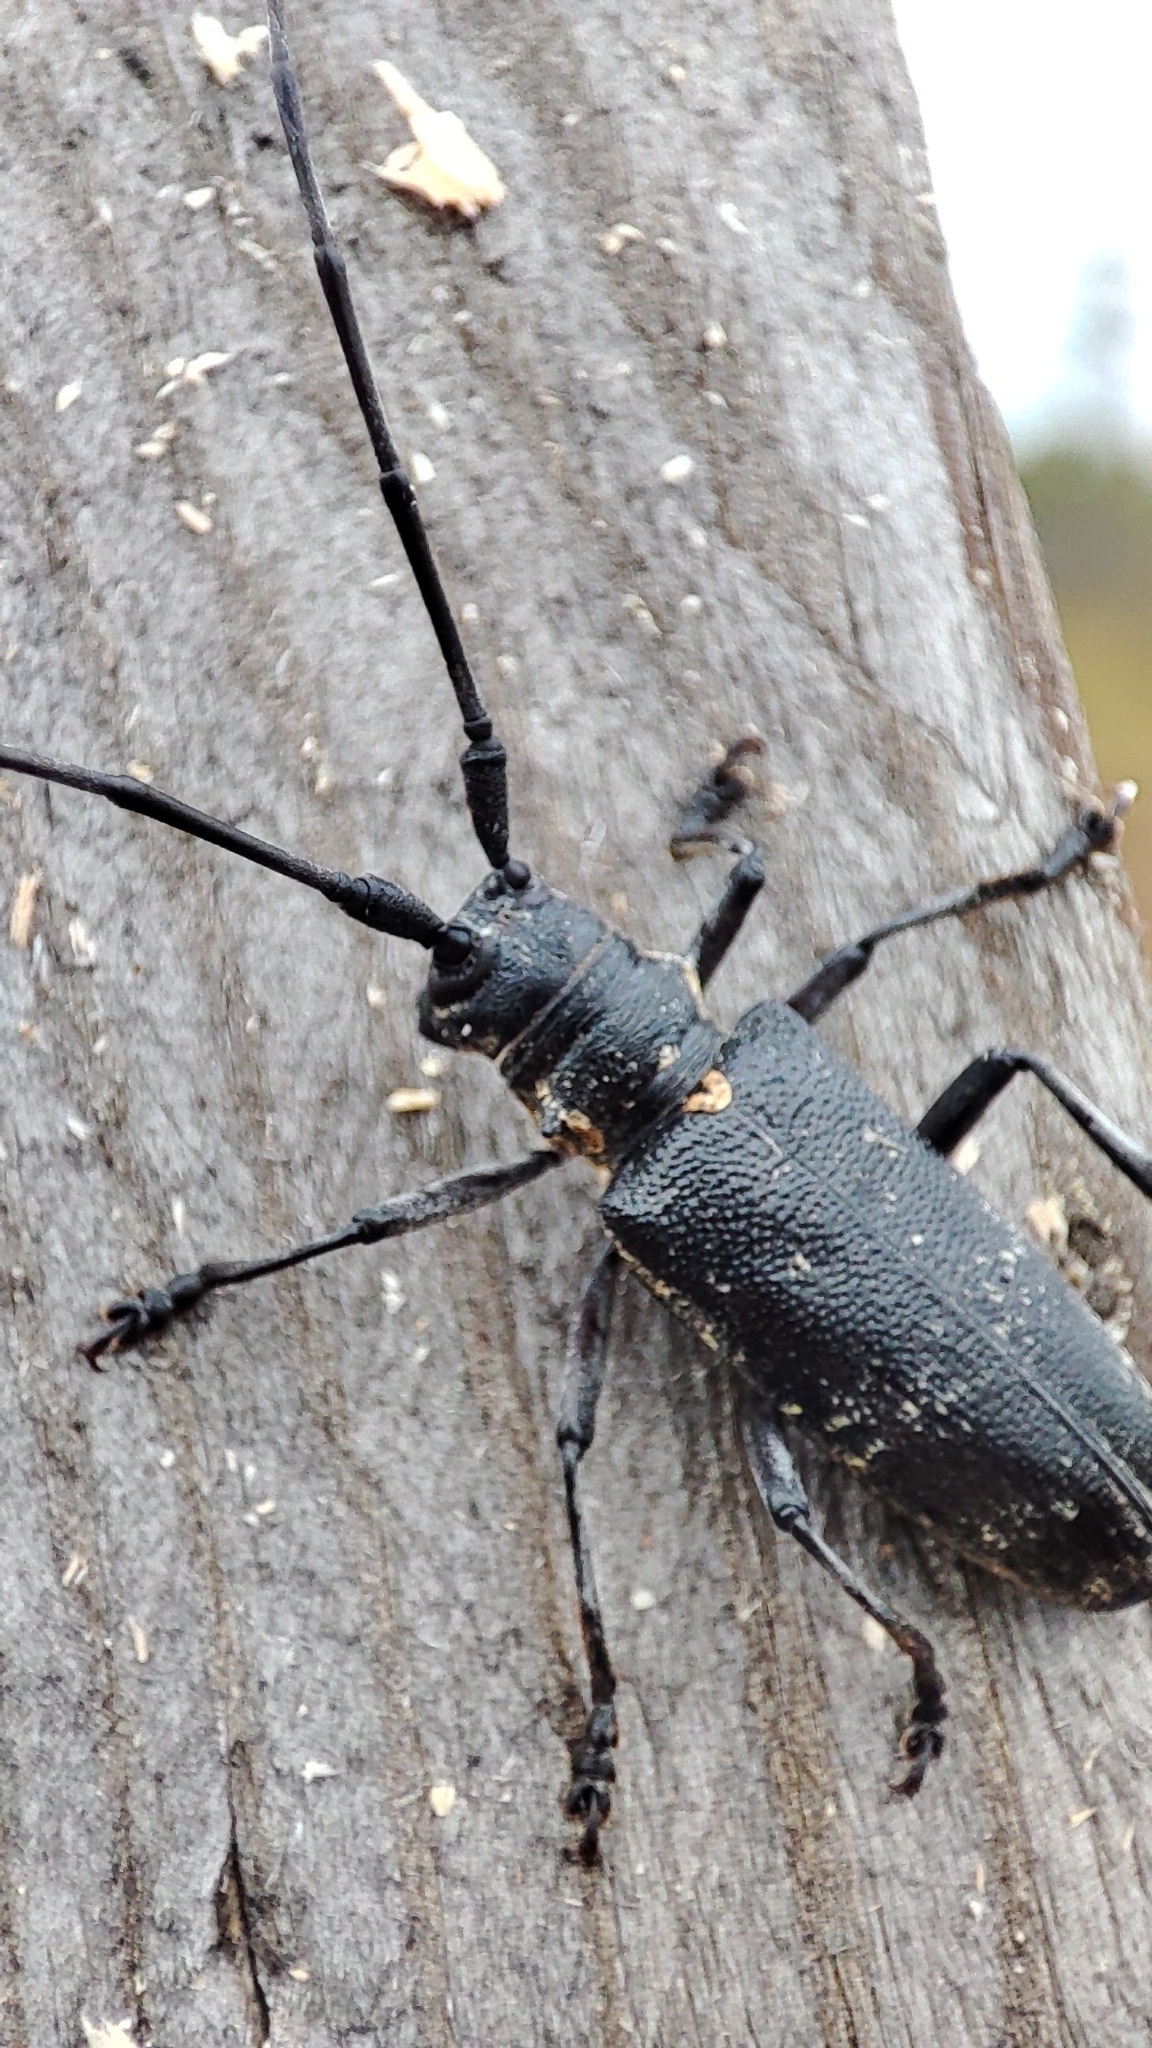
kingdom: Animalia
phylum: Arthropoda
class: Insecta
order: Coleoptera
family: Cerambycidae
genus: Monochamus
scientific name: Monochamus sartor
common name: Pine sawyer
